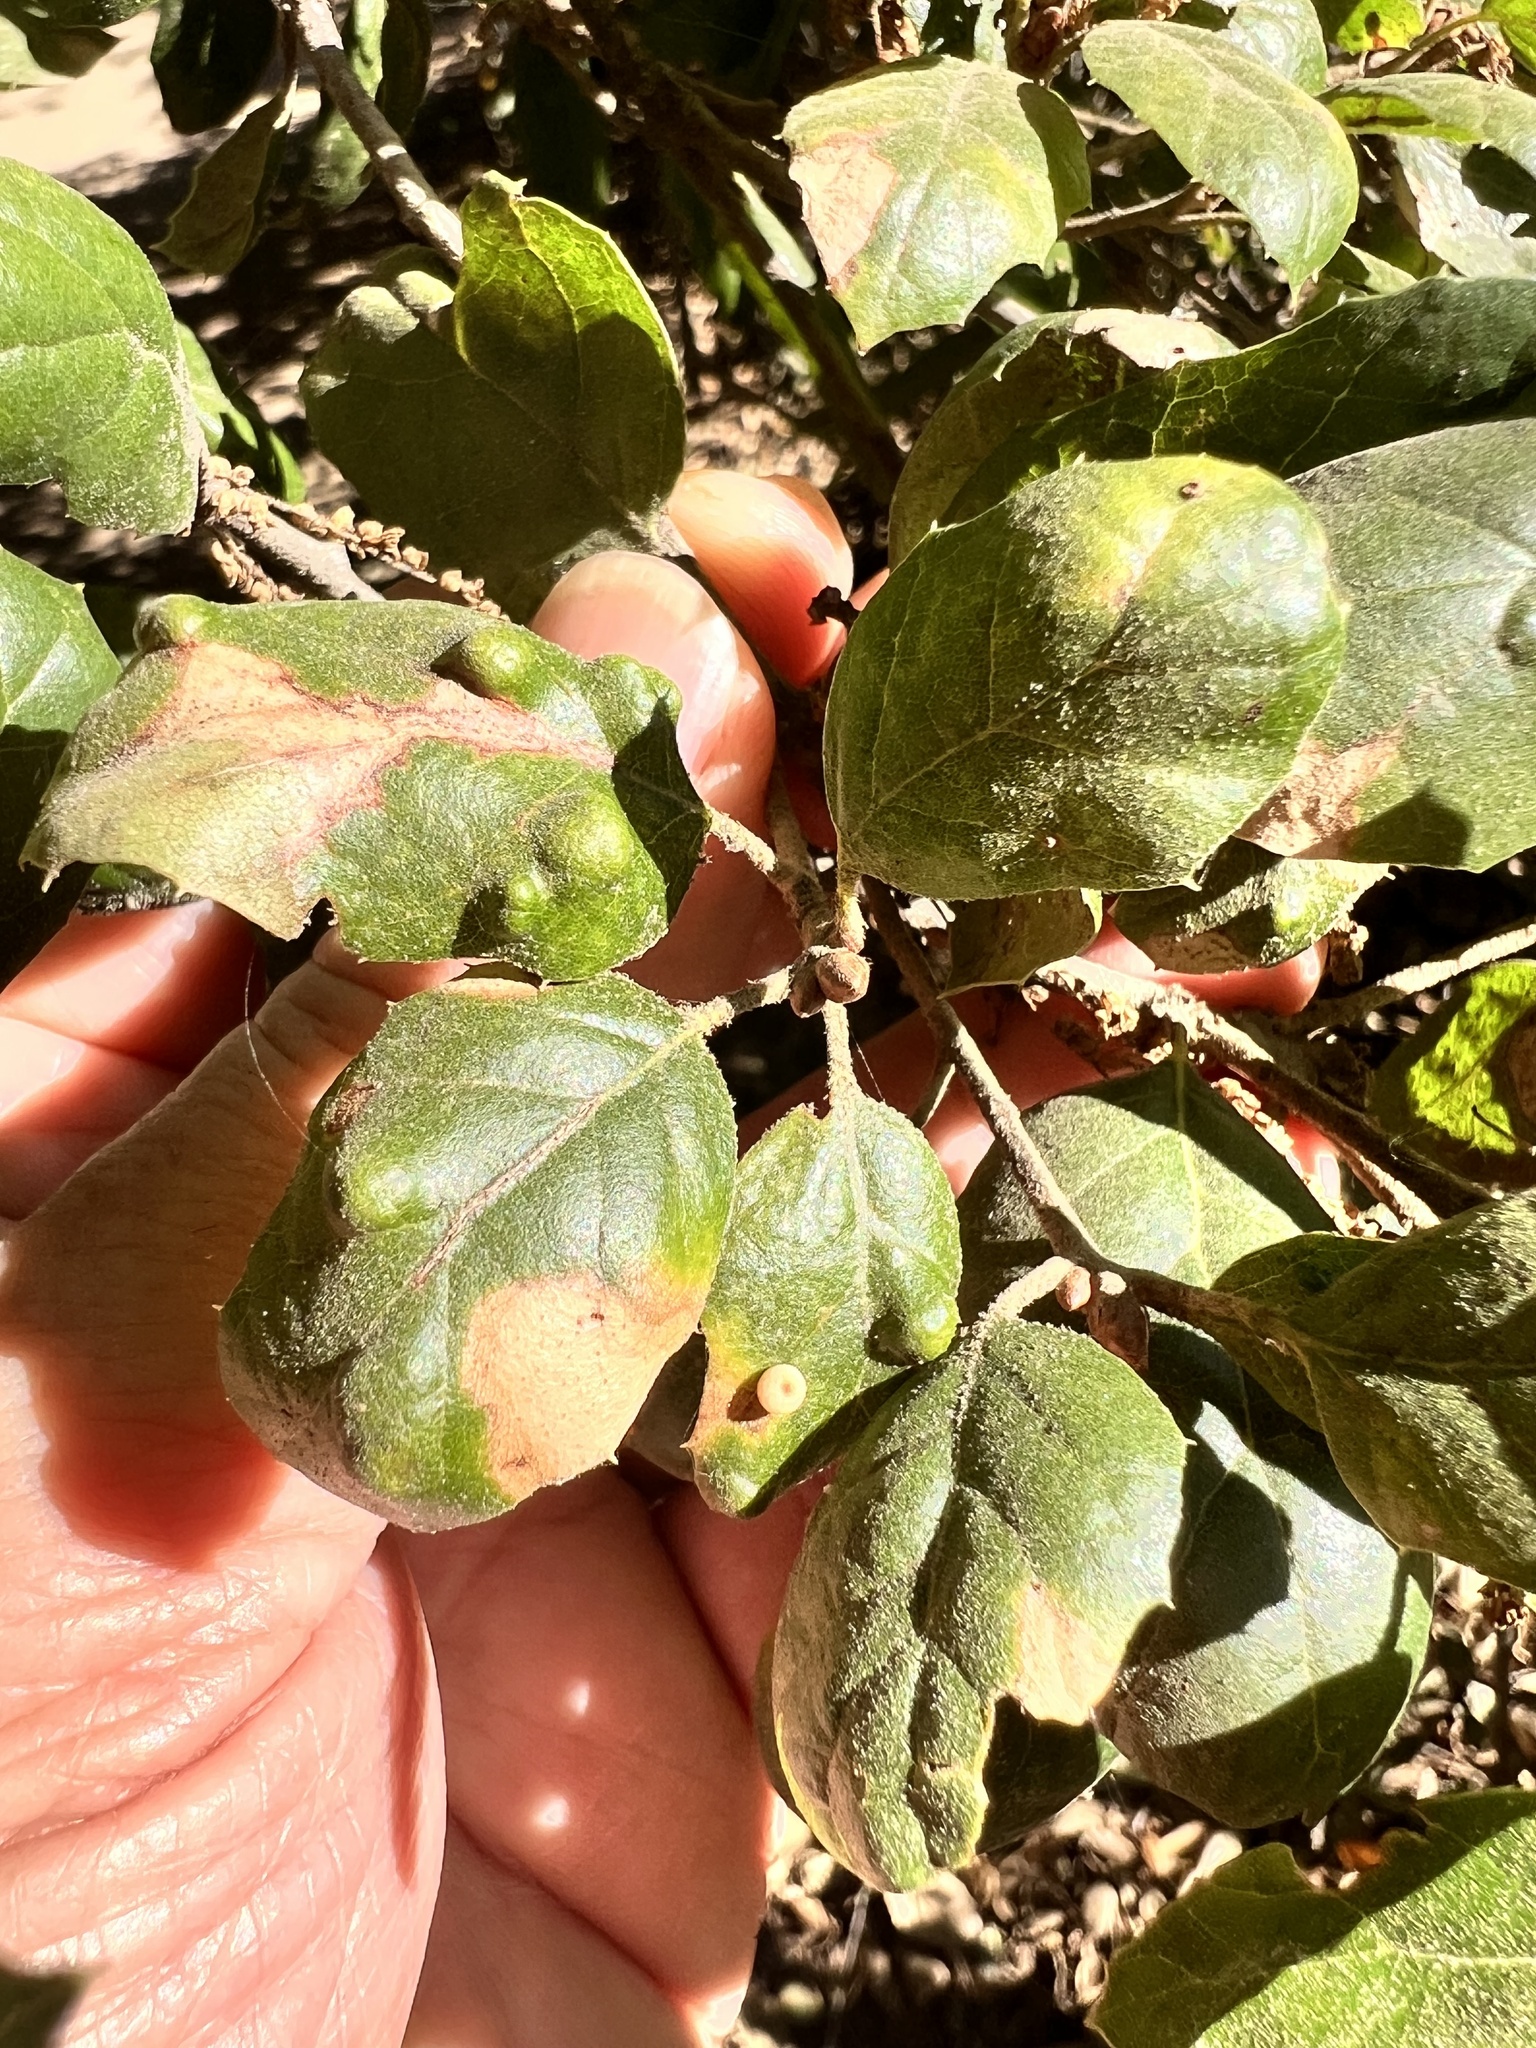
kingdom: Animalia
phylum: Arthropoda
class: Arachnida
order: Trombidiformes
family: Eriophyidae
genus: Aceria
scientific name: Aceria
